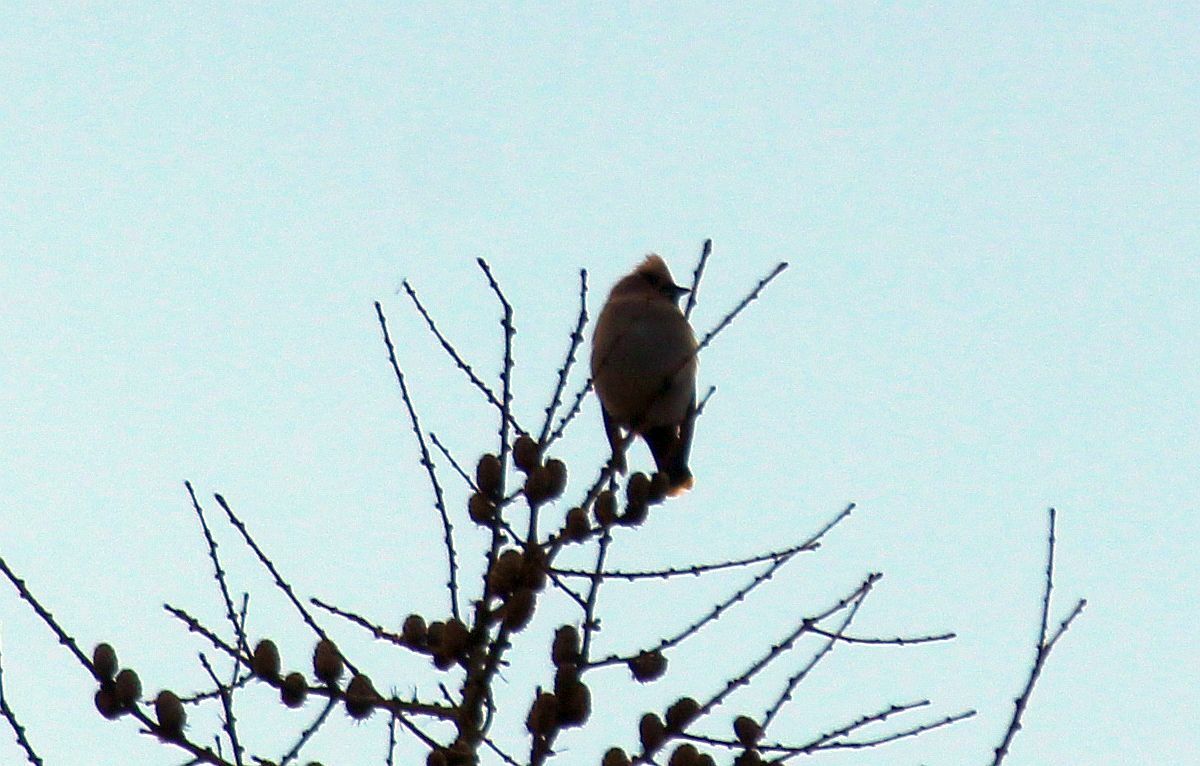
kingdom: Animalia
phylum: Chordata
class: Aves
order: Passeriformes
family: Bombycillidae
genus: Bombycilla
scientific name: Bombycilla garrulus
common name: Bohemian waxwing
